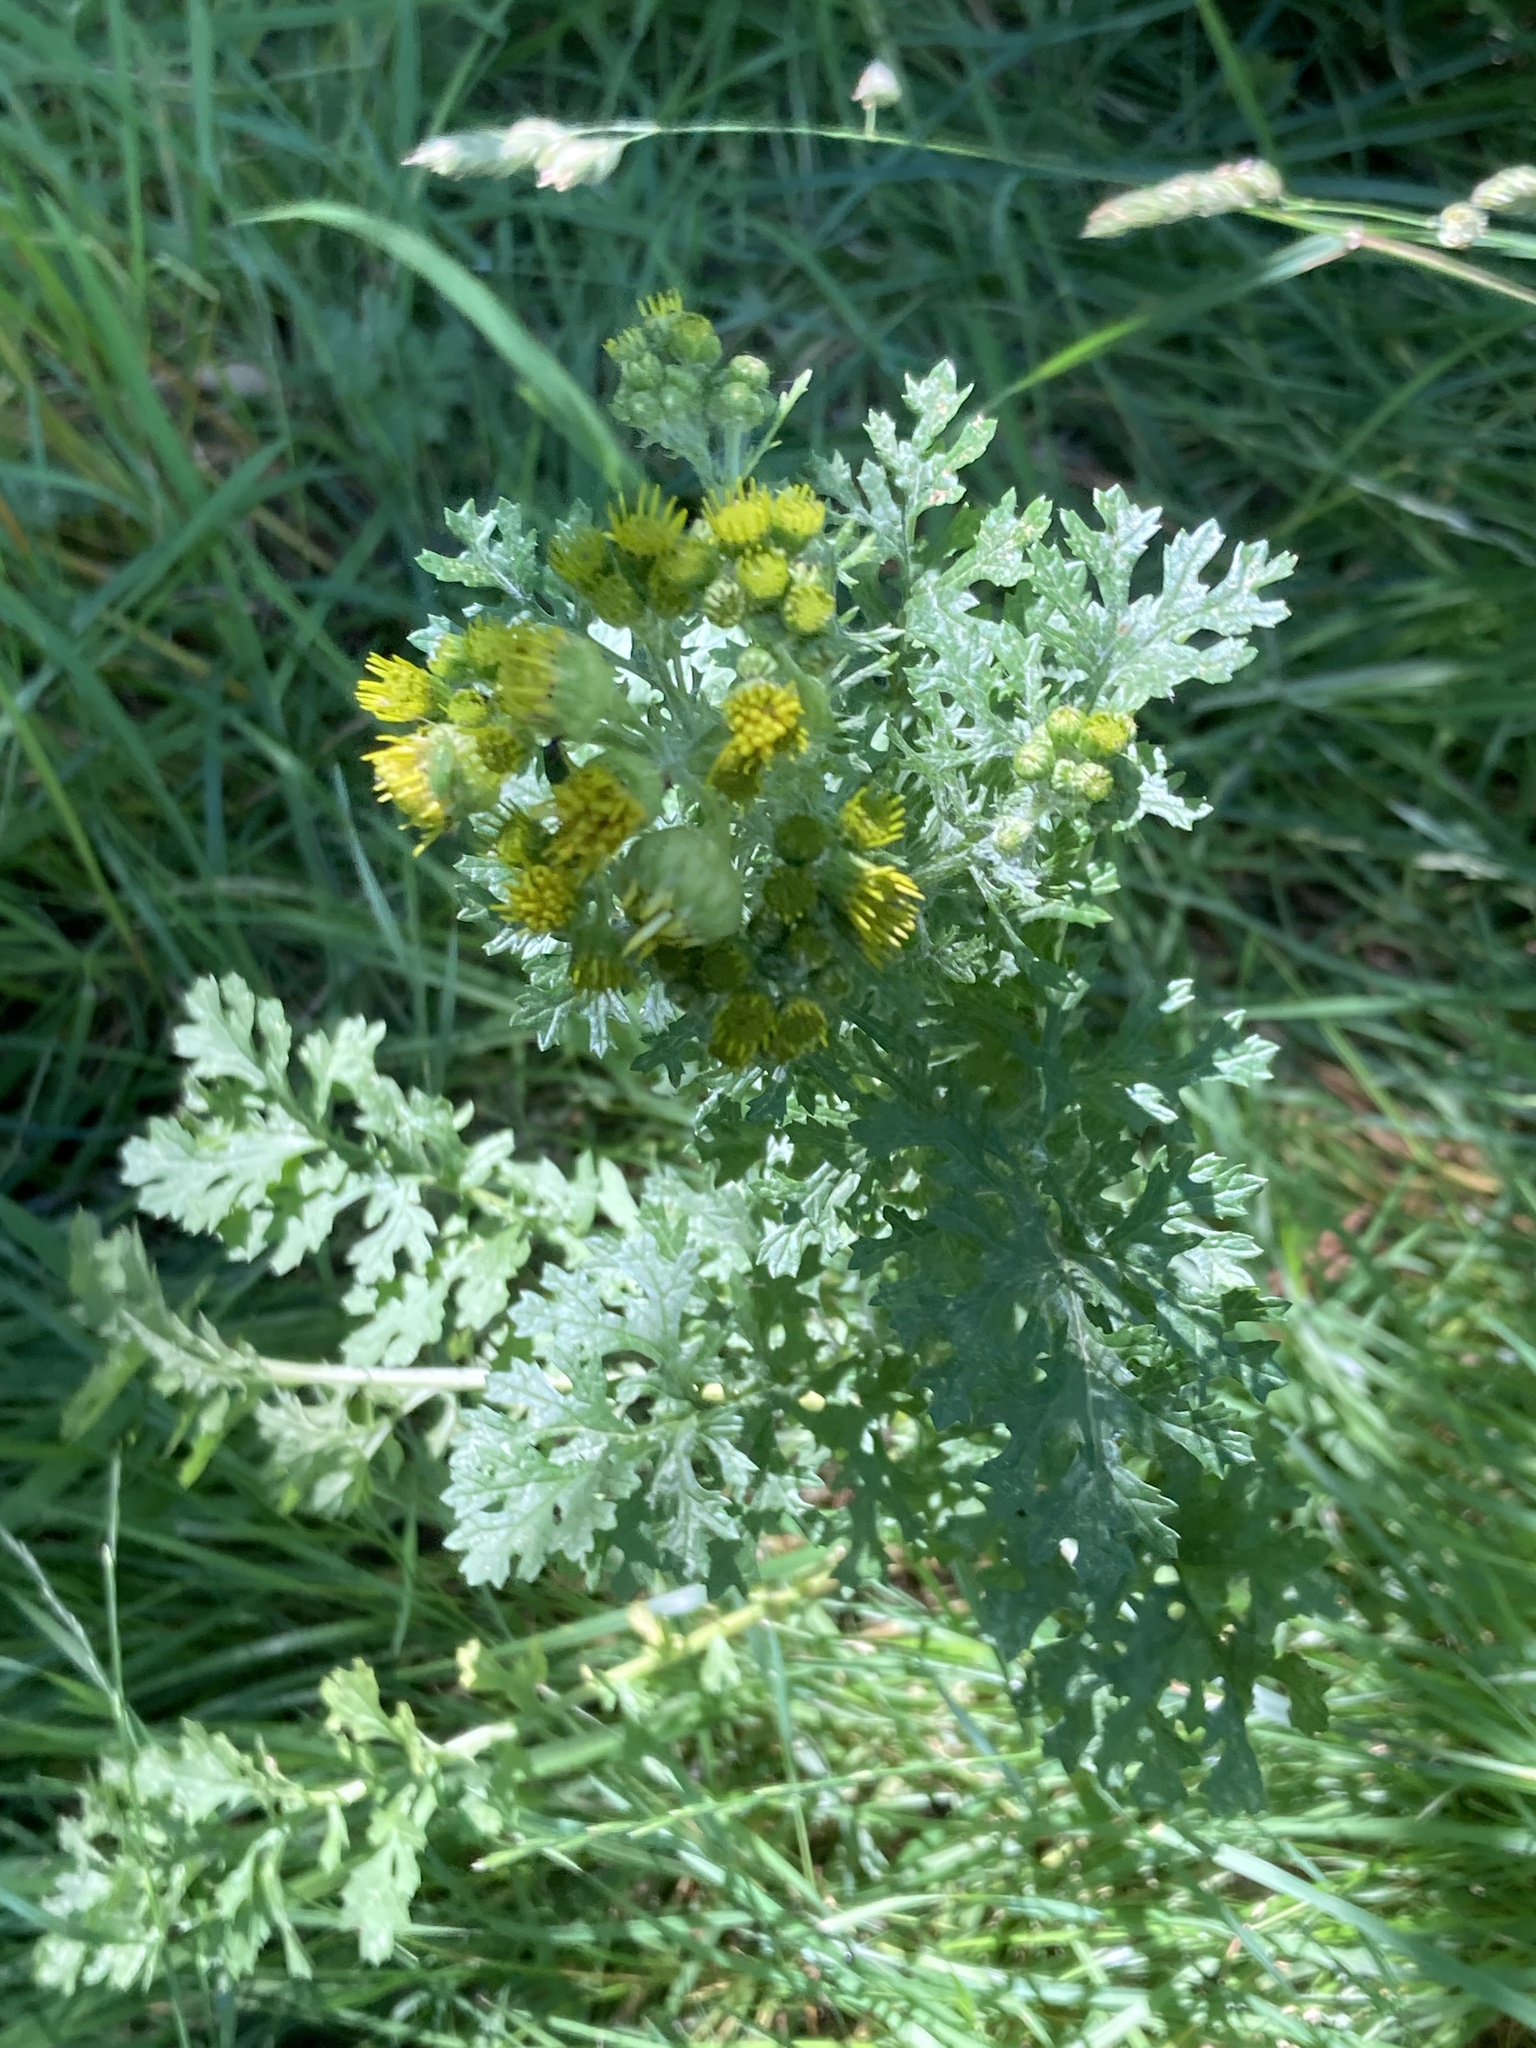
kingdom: Plantae
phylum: Tracheophyta
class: Magnoliopsida
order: Asterales
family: Asteraceae
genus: Jacobaea
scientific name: Jacobaea vulgaris
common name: Stinking willie
